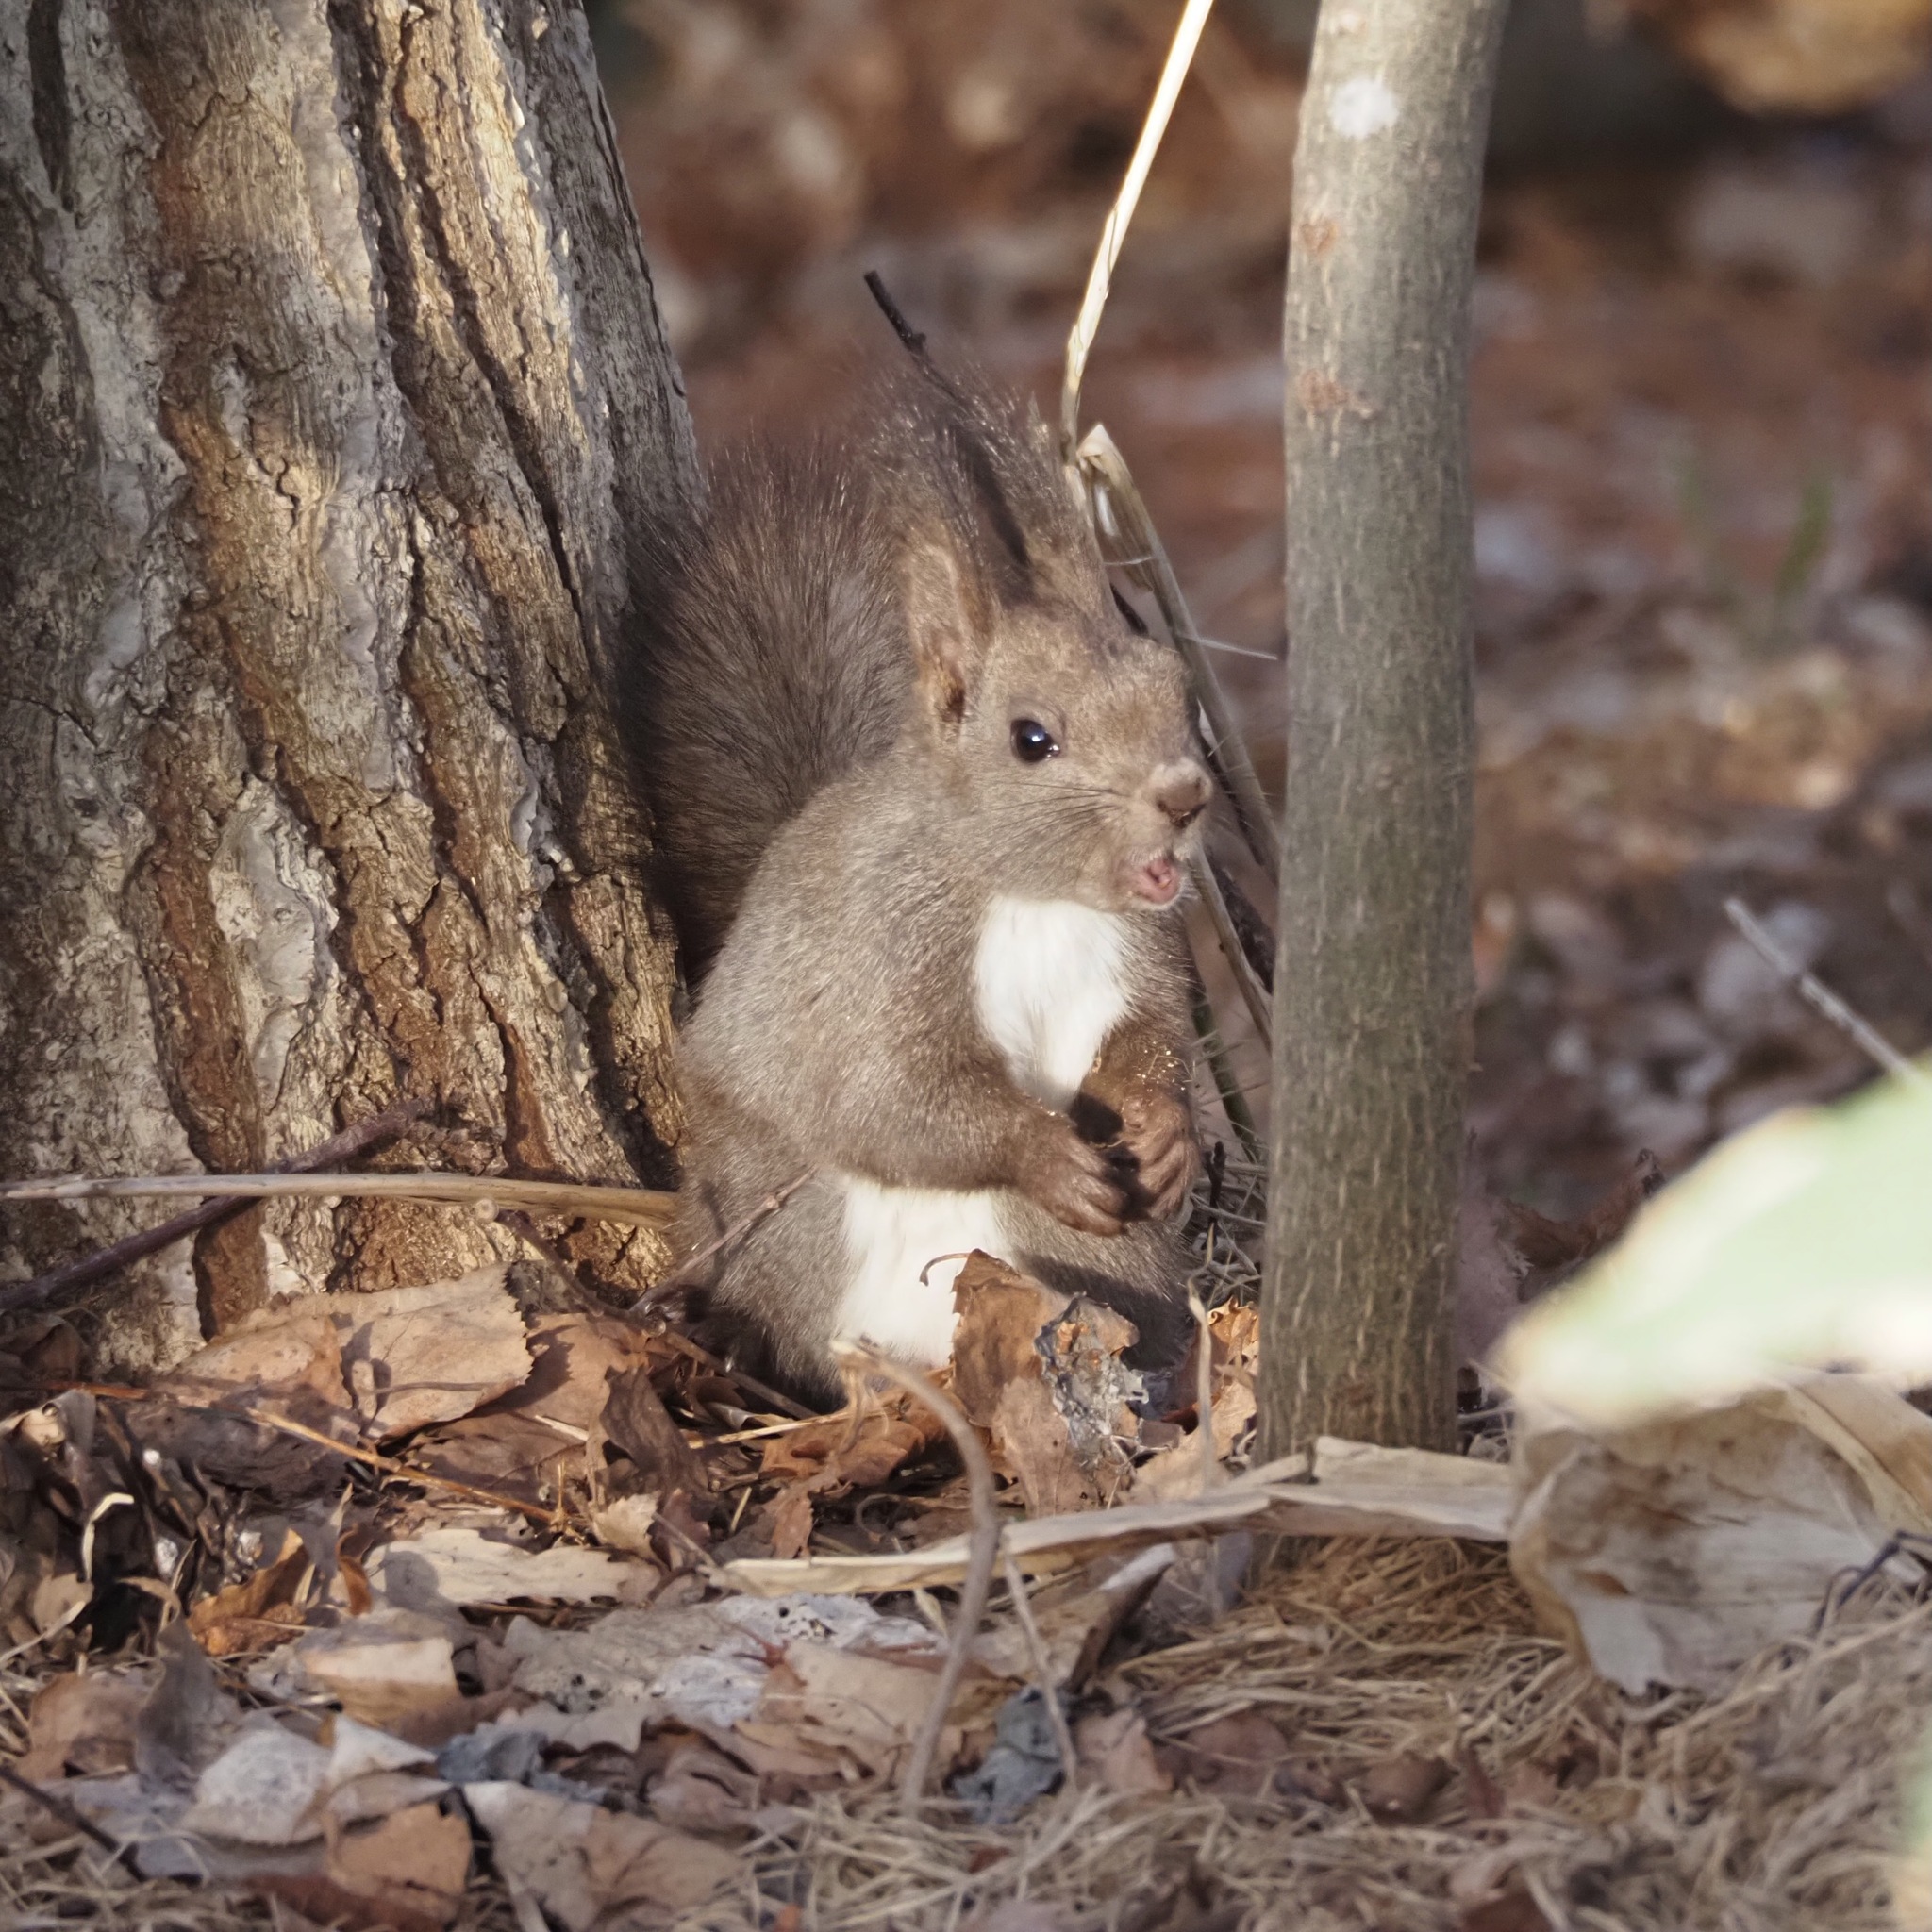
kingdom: Animalia
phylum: Chordata
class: Mammalia
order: Rodentia
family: Sciuridae
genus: Sciurus
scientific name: Sciurus vulgaris
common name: Eurasian red squirrel
